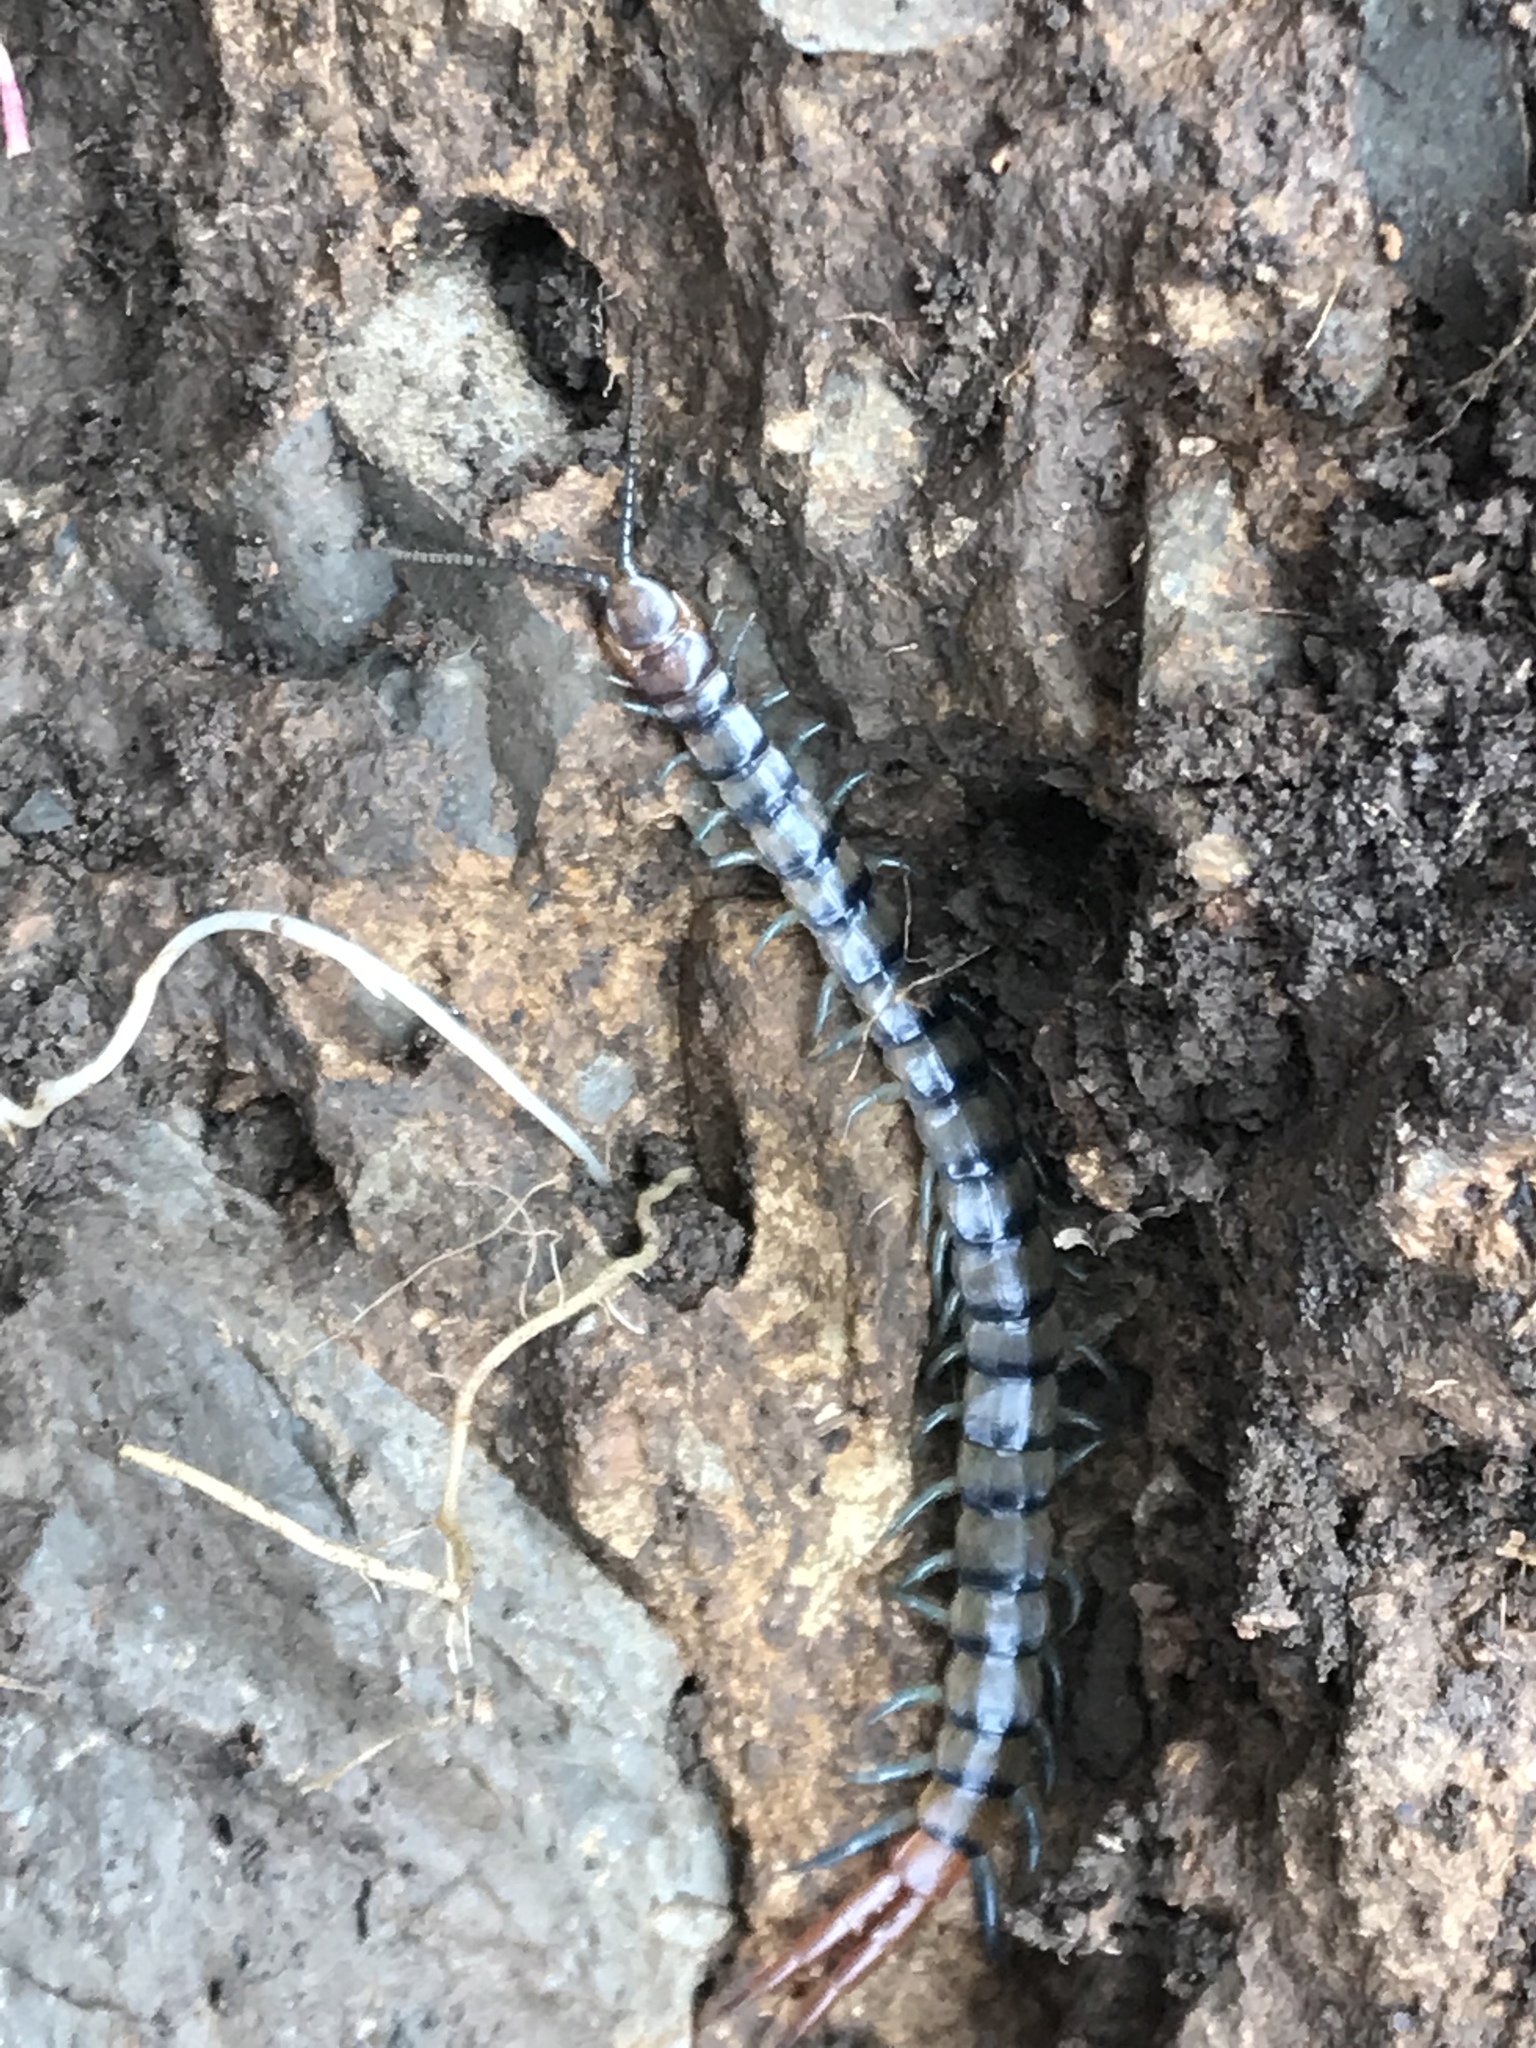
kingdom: Animalia
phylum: Arthropoda
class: Chilopoda
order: Scolopendromorpha
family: Scolopendridae
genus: Scolopendra
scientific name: Scolopendra polymorpha
